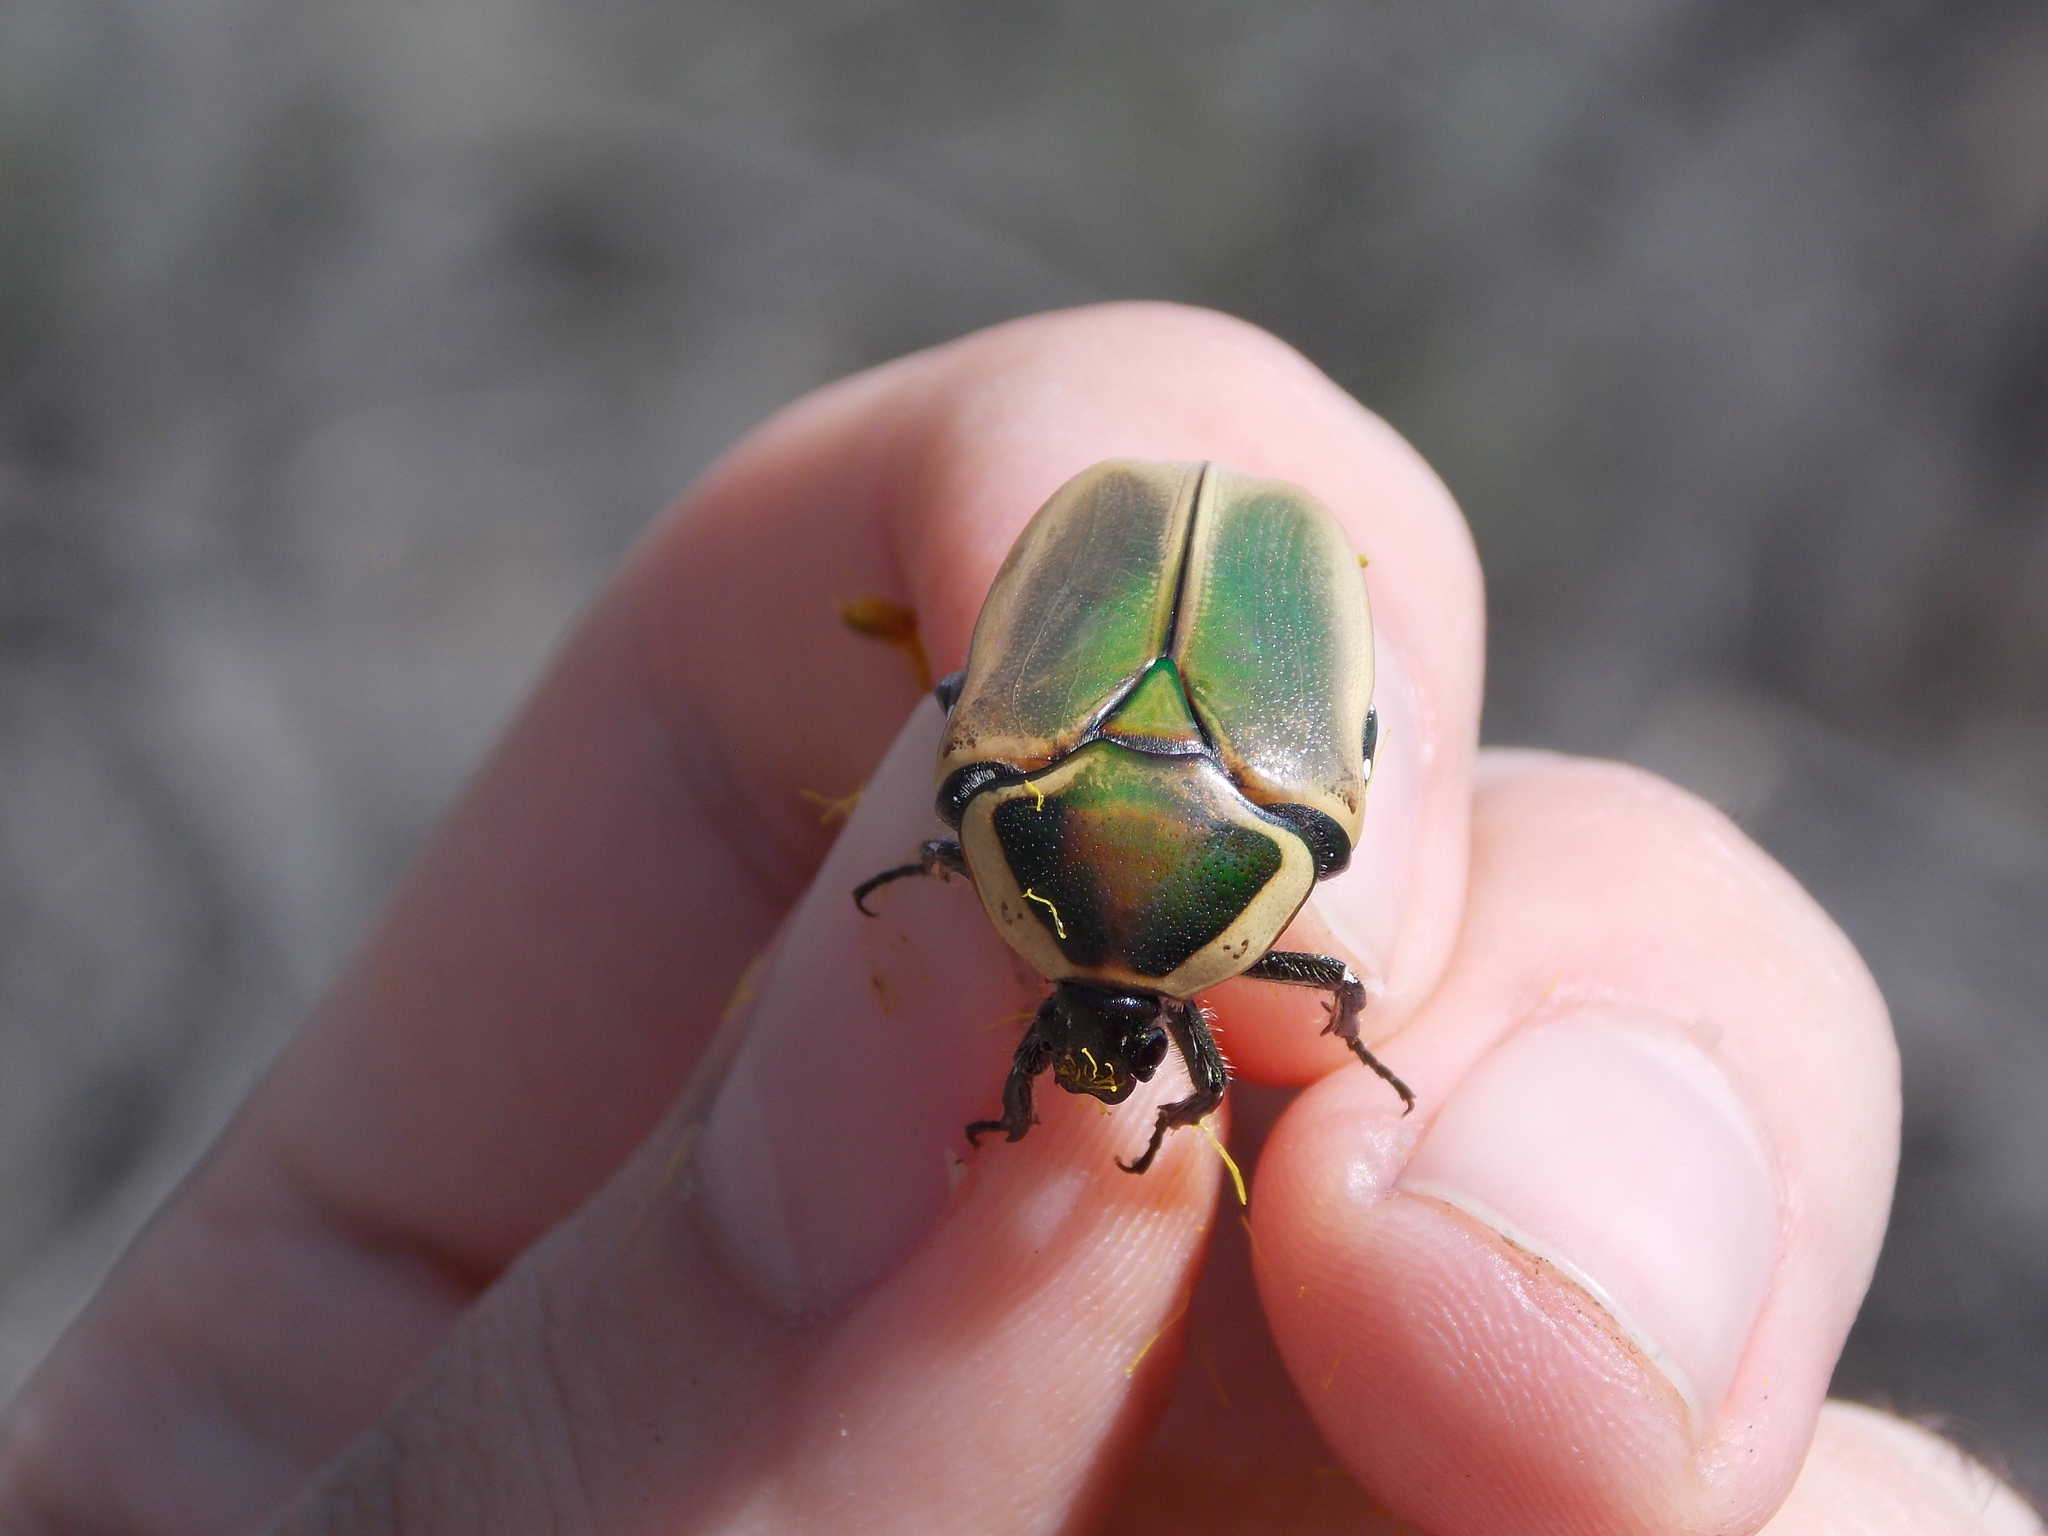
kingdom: Animalia
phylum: Arthropoda
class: Insecta
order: Coleoptera
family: Scarabaeidae
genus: Dischista
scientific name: Dischista cincta
